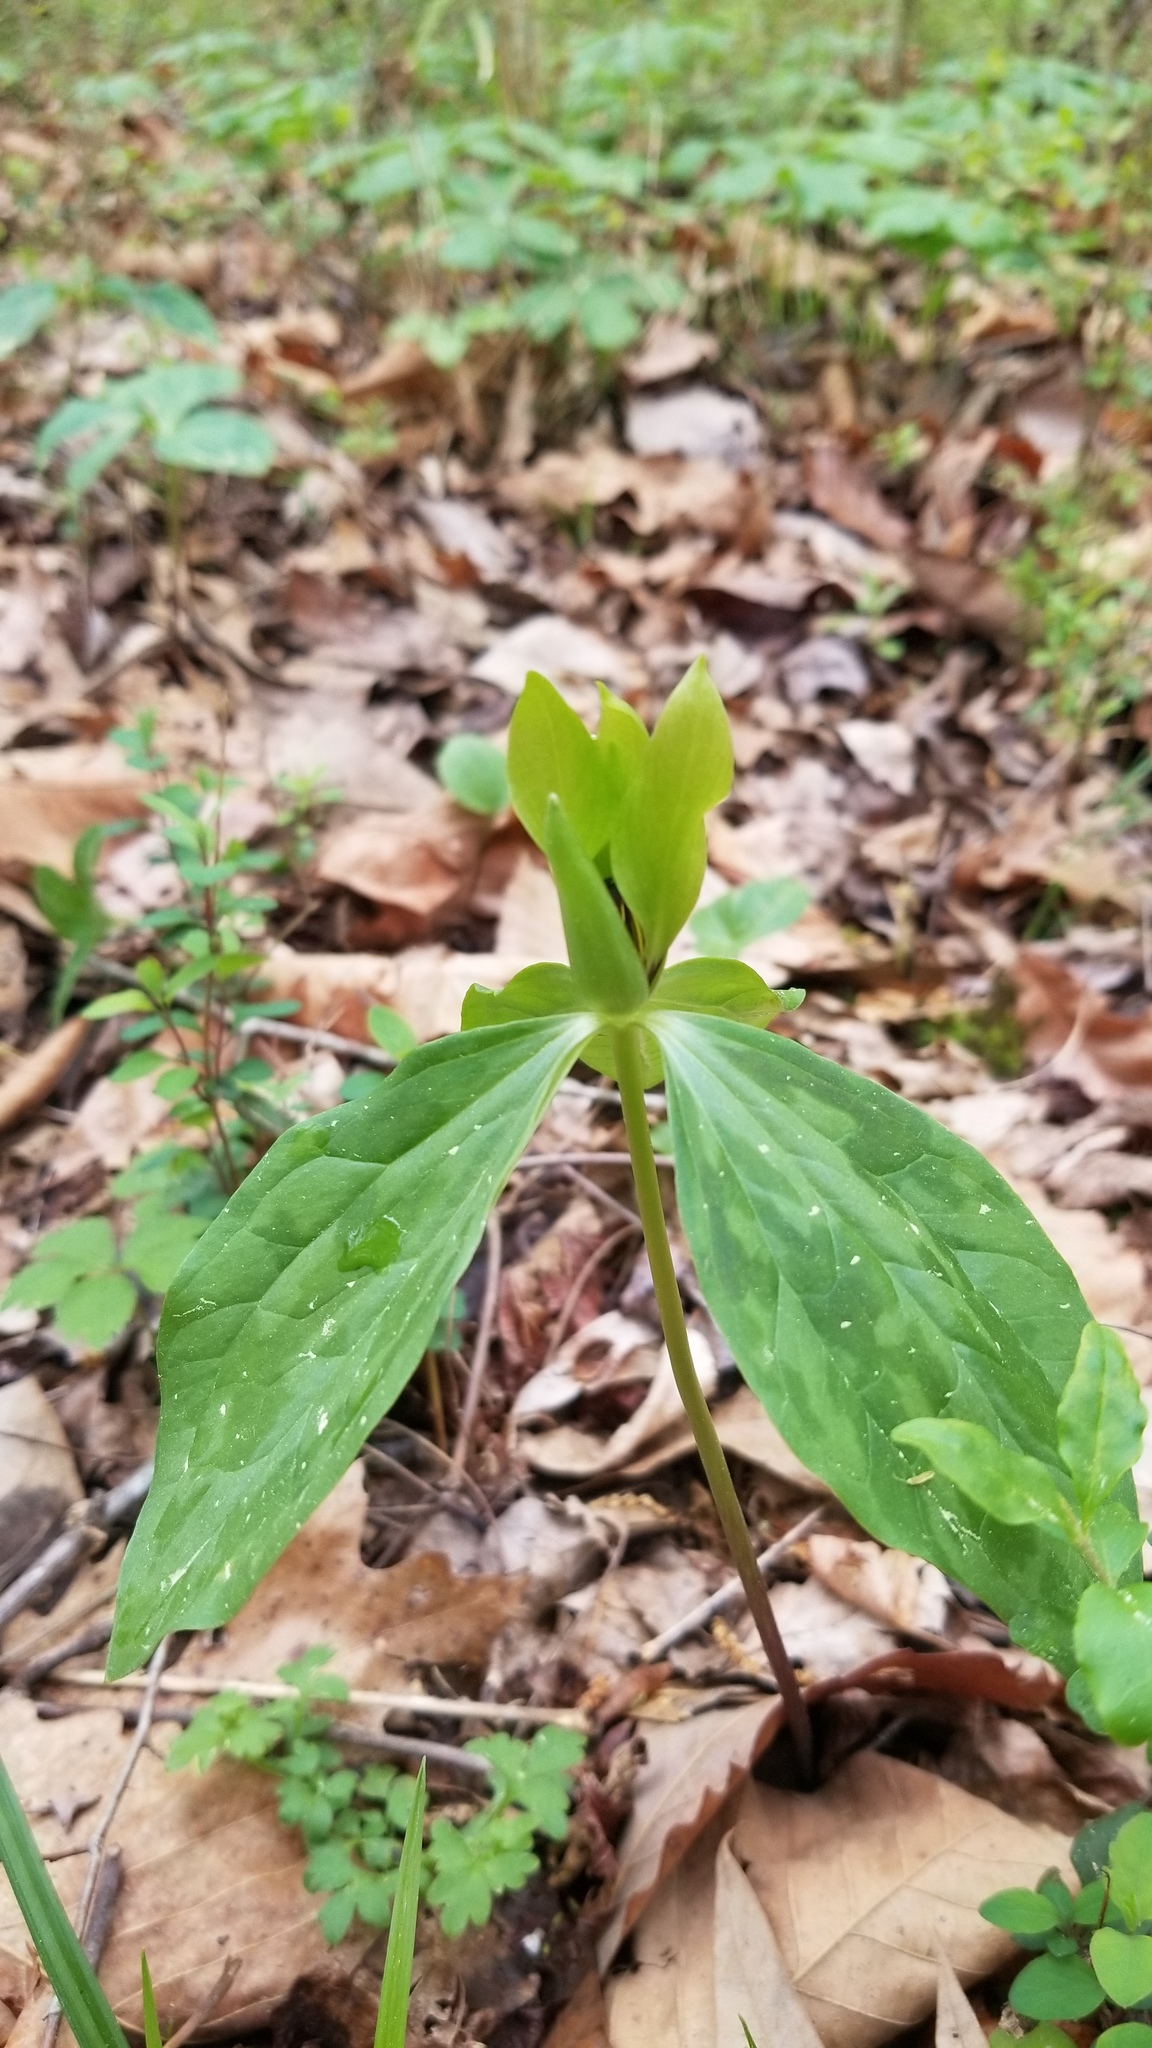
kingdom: Plantae
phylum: Tracheophyta
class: Liliopsida
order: Liliales
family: Melanthiaceae
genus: Trillium
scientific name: Trillium oostingii
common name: Wateree trillium
